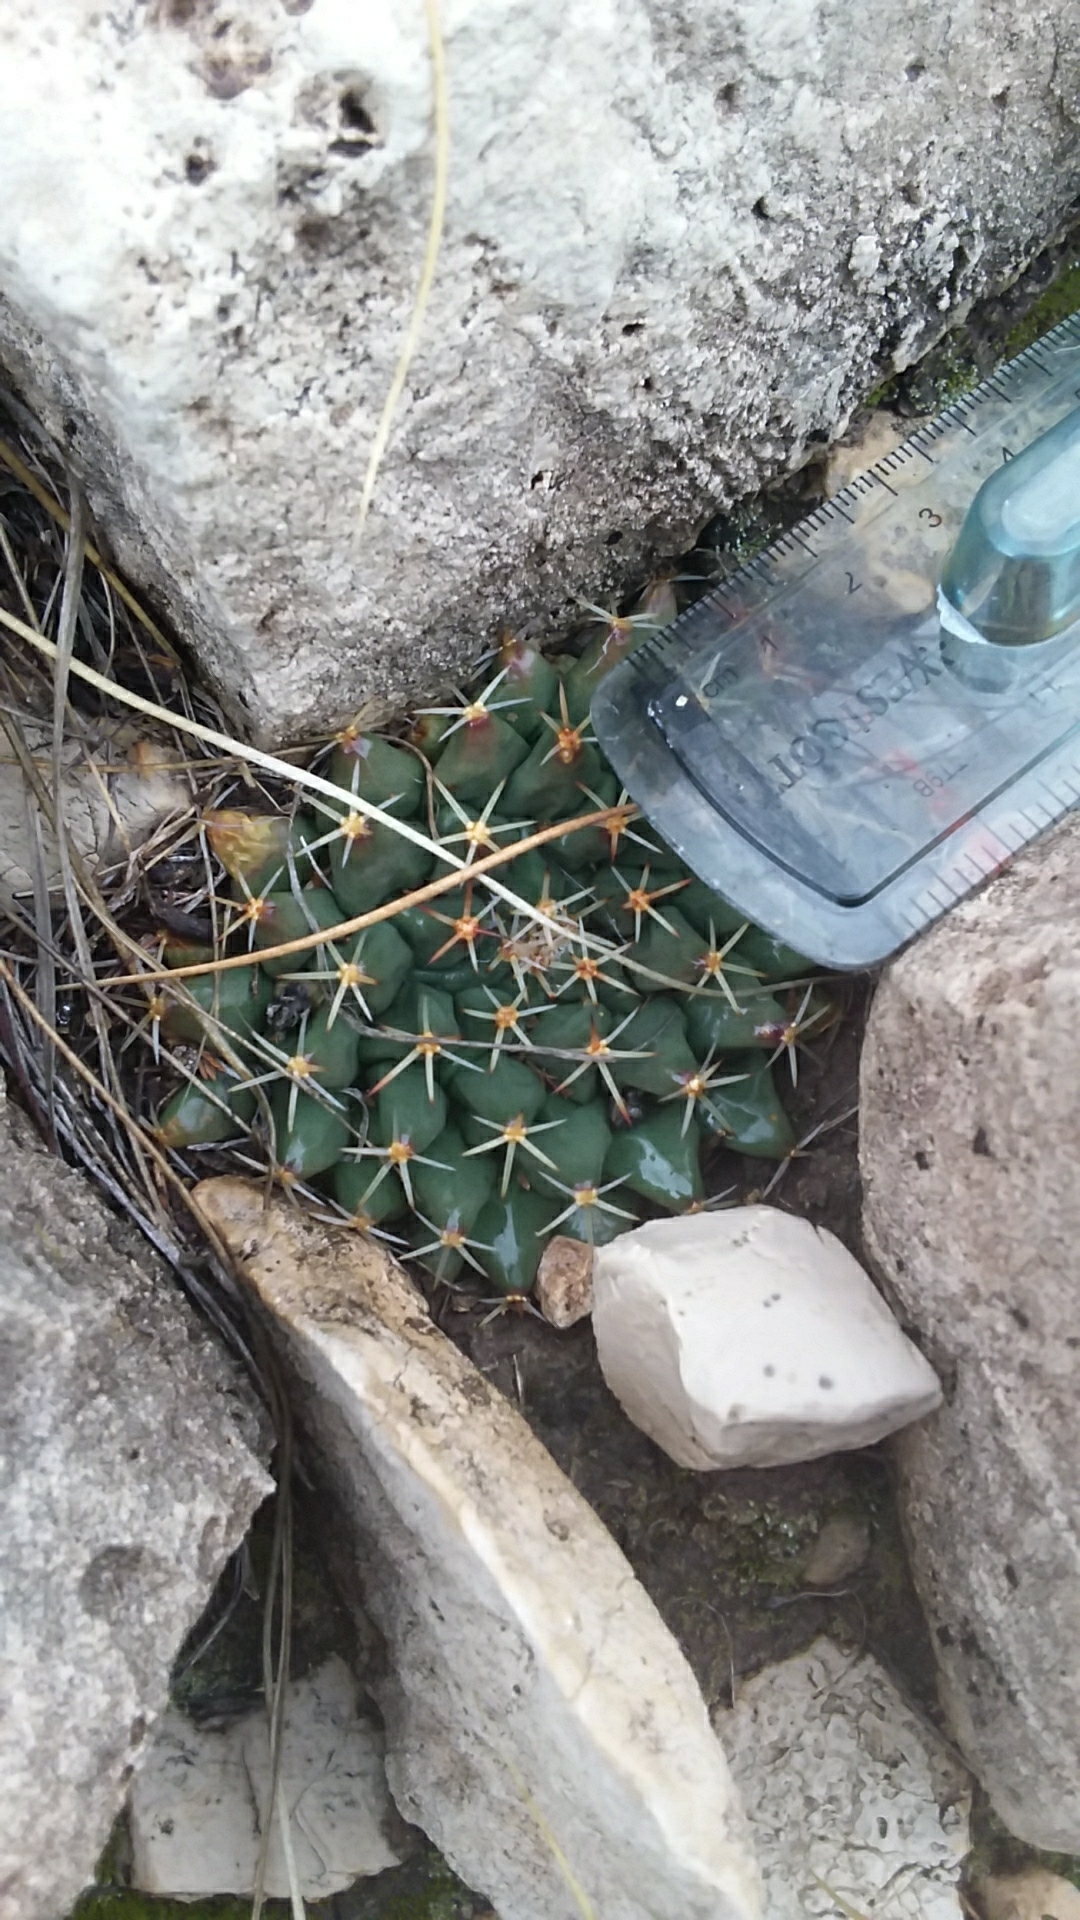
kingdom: Plantae
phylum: Tracheophyta
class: Magnoliopsida
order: Caryophyllales
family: Cactaceae
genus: Mammillaria
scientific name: Mammillaria heyderi
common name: Little nipple cactus
